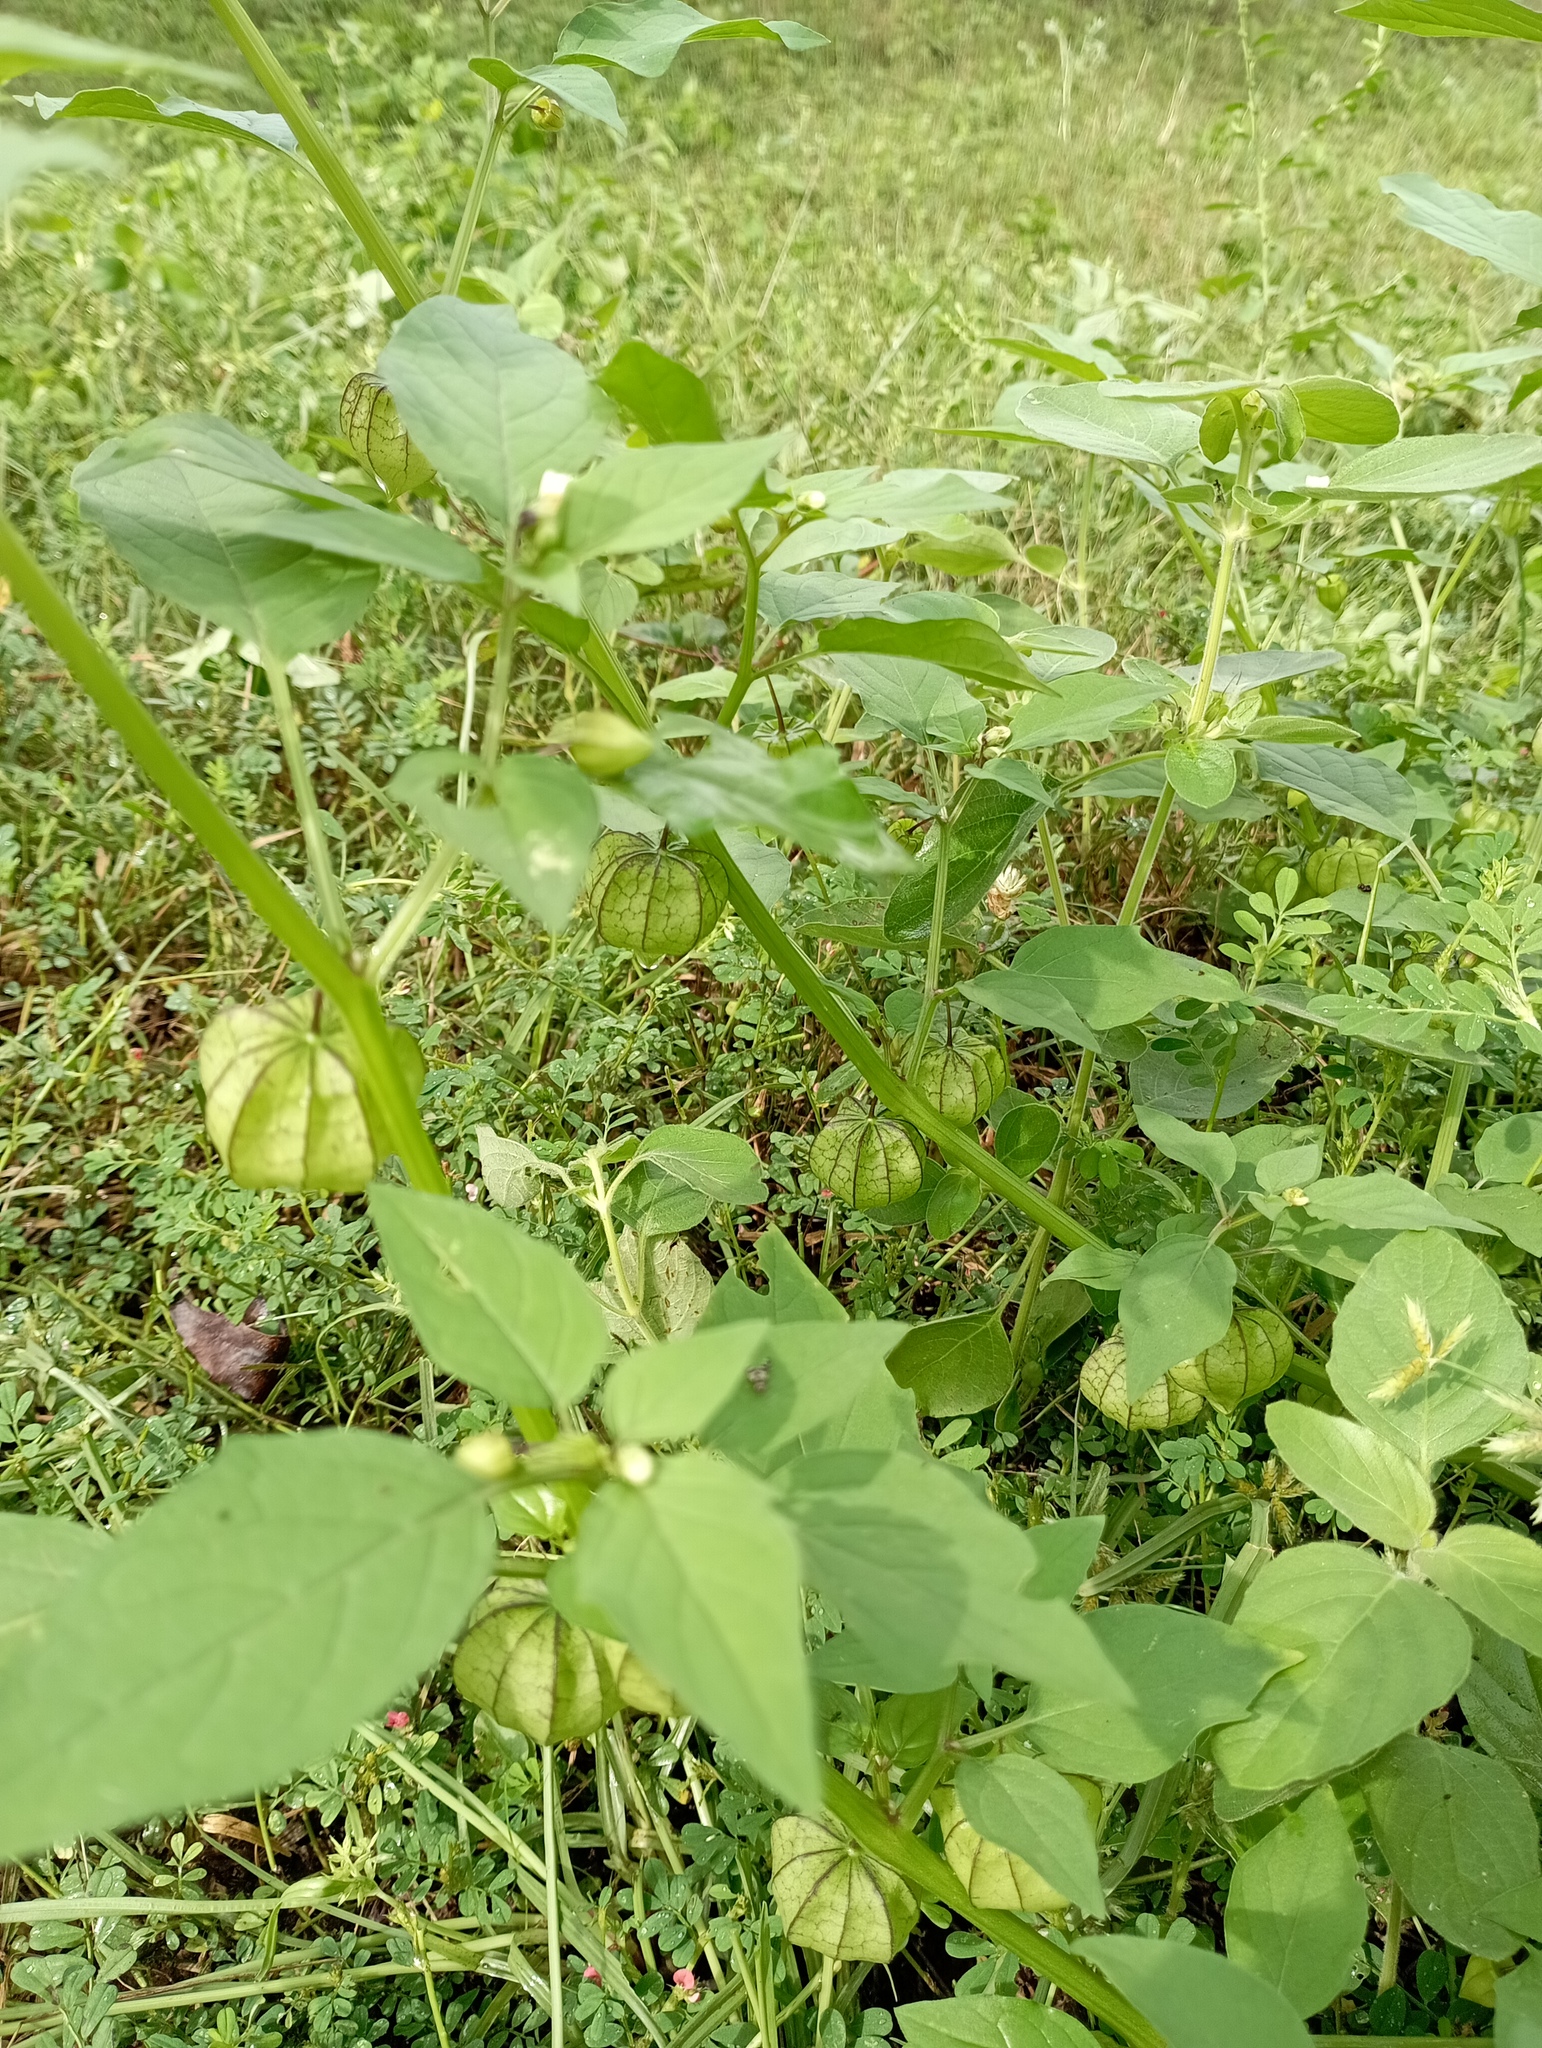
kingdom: Plantae
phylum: Tracheophyta
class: Magnoliopsida
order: Solanales
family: Solanaceae
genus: Physalis
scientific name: Physalis angulata
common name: Angular winter-cherry
